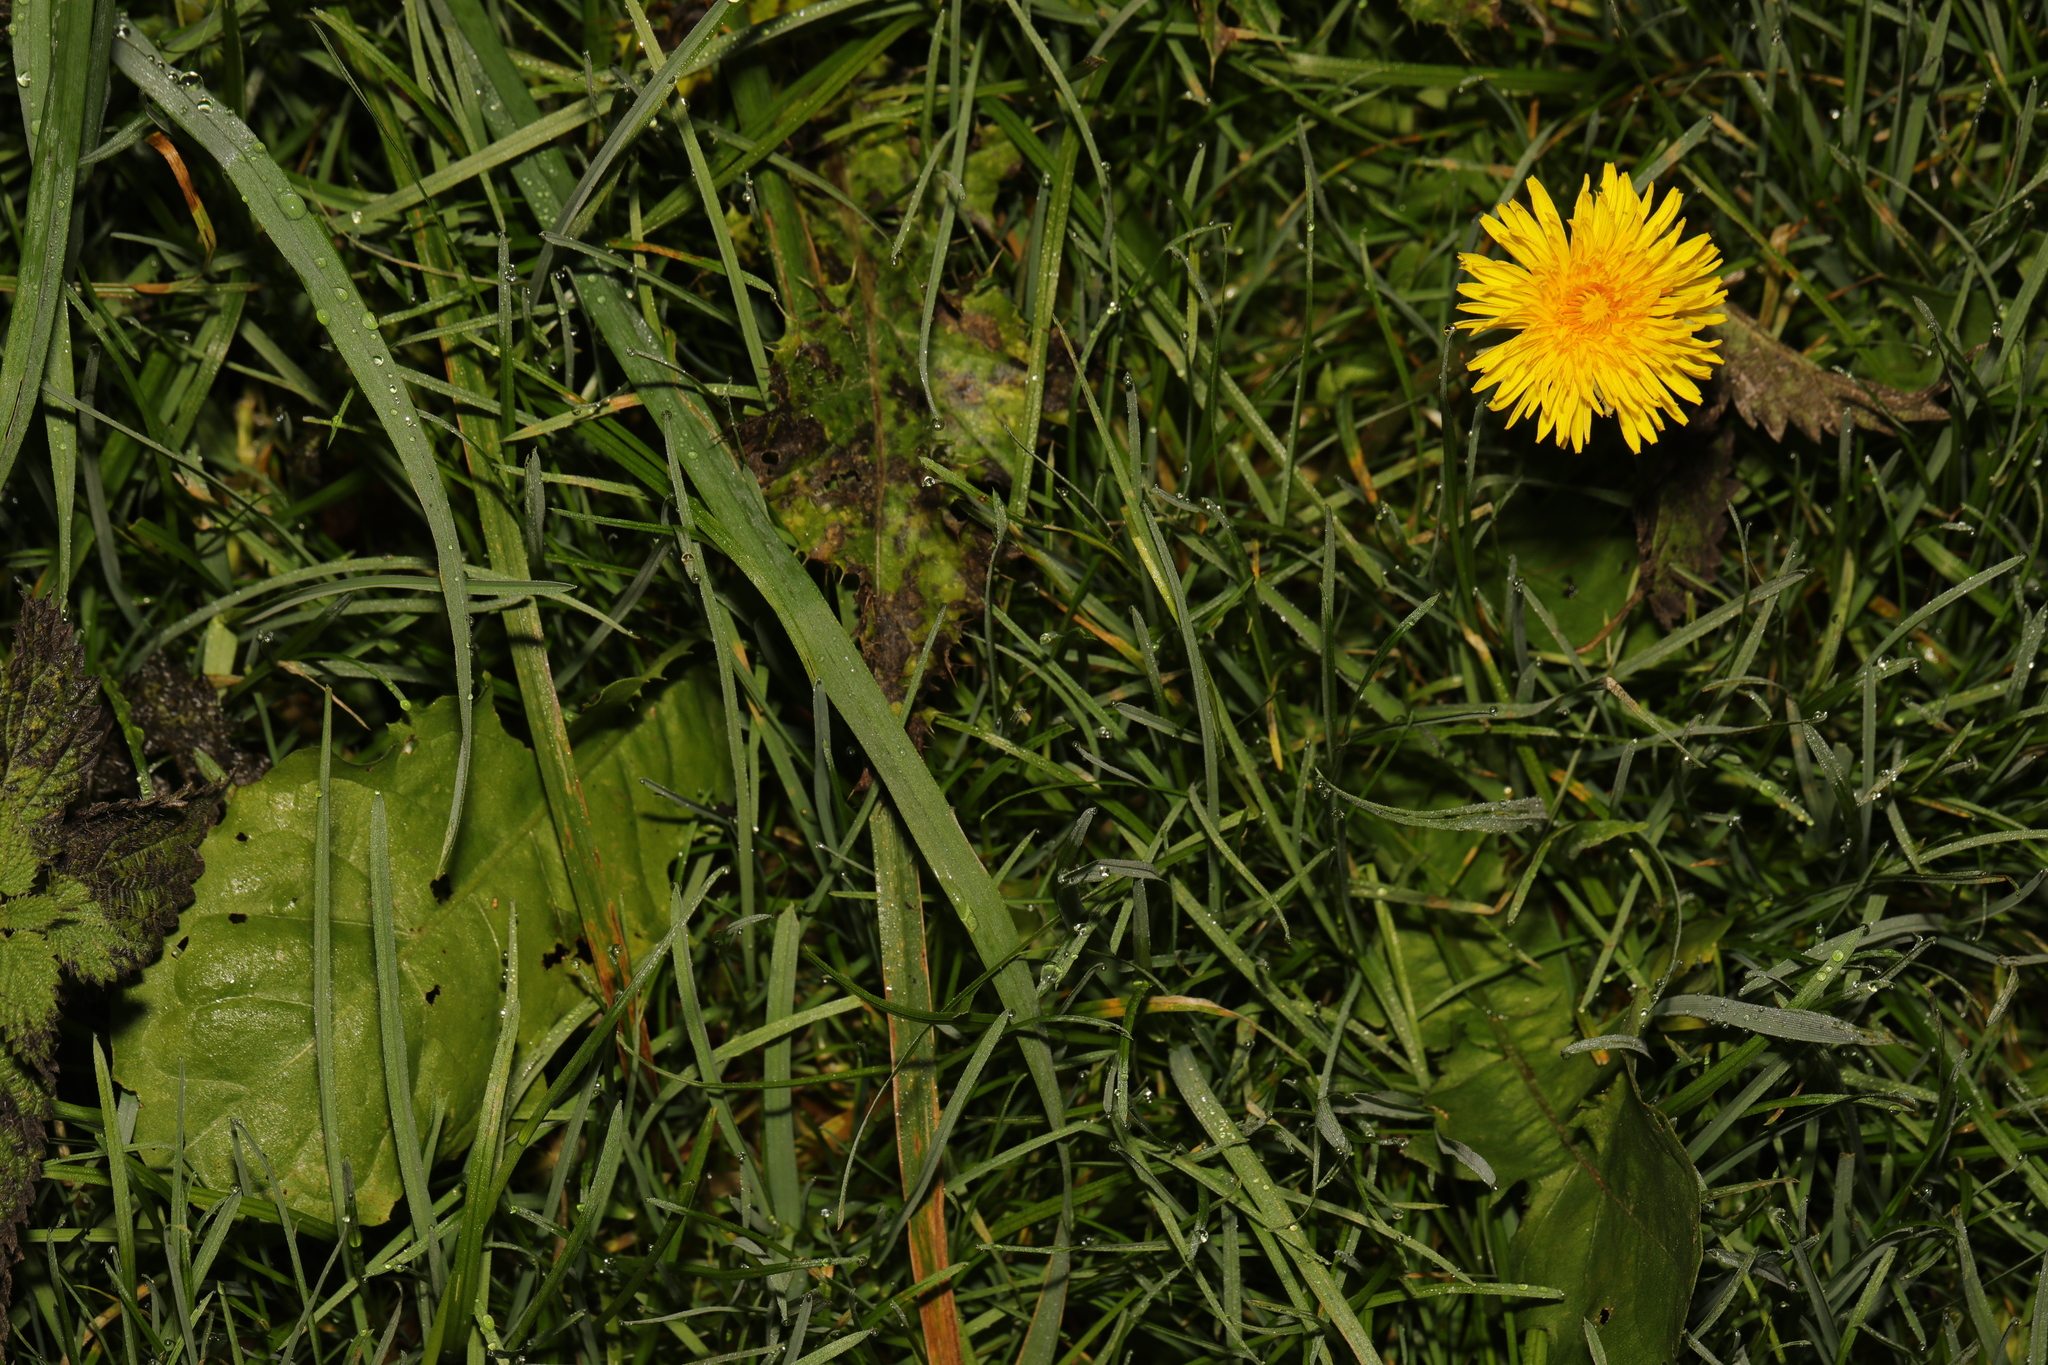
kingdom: Plantae
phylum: Tracheophyta
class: Magnoliopsida
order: Asterales
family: Asteraceae
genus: Taraxacum
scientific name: Taraxacum officinale
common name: Common dandelion
